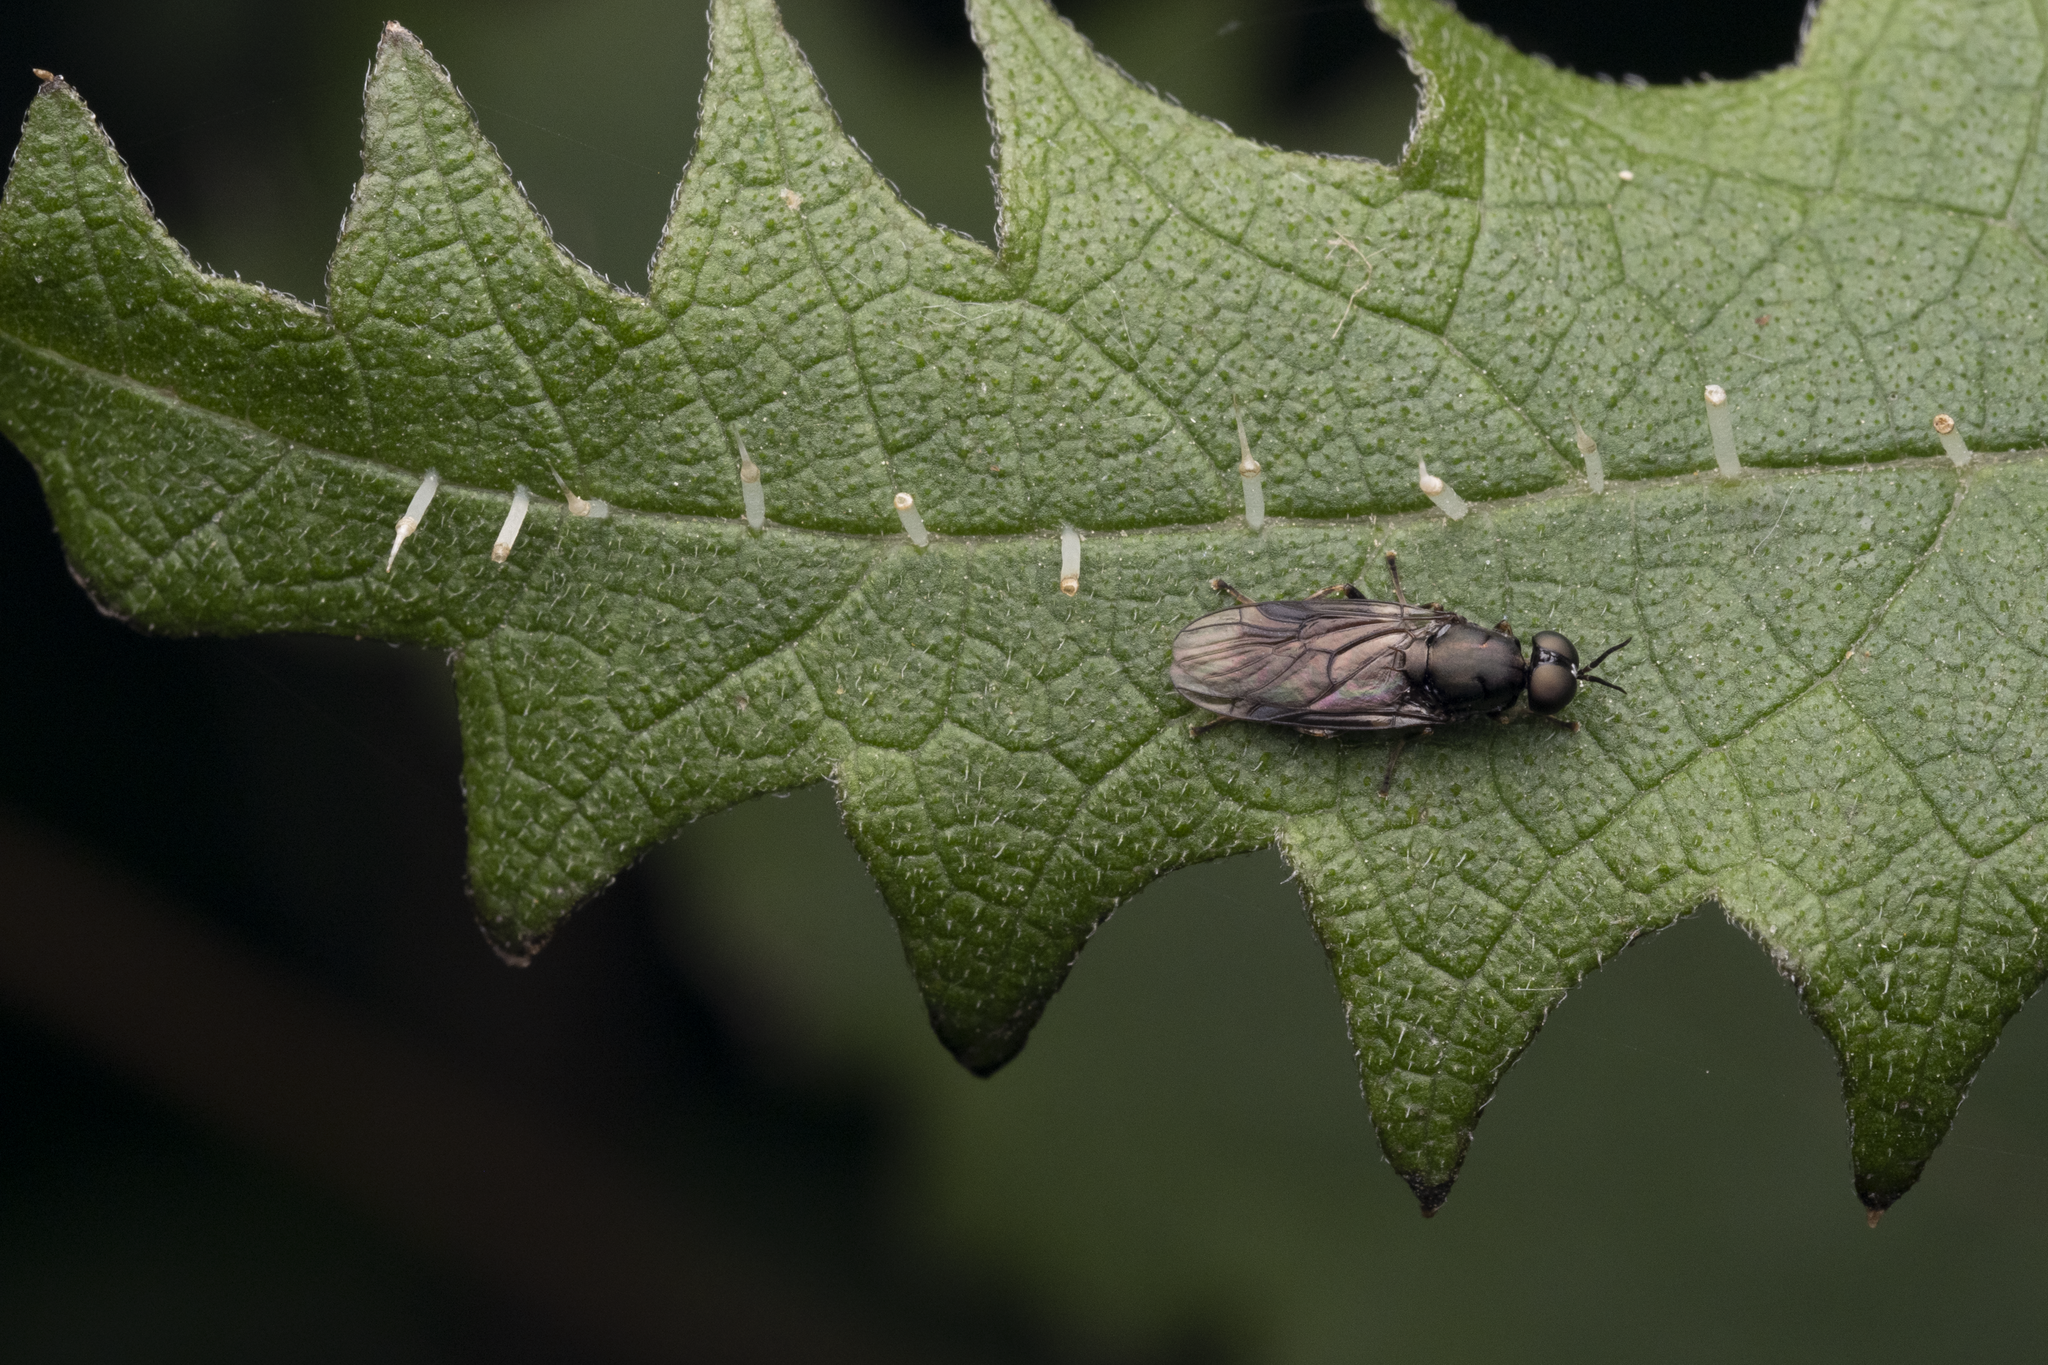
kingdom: Animalia
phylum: Arthropoda
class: Insecta
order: Diptera
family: Stratiomyidae
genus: Zealandoberis
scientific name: Zealandoberis violacea
